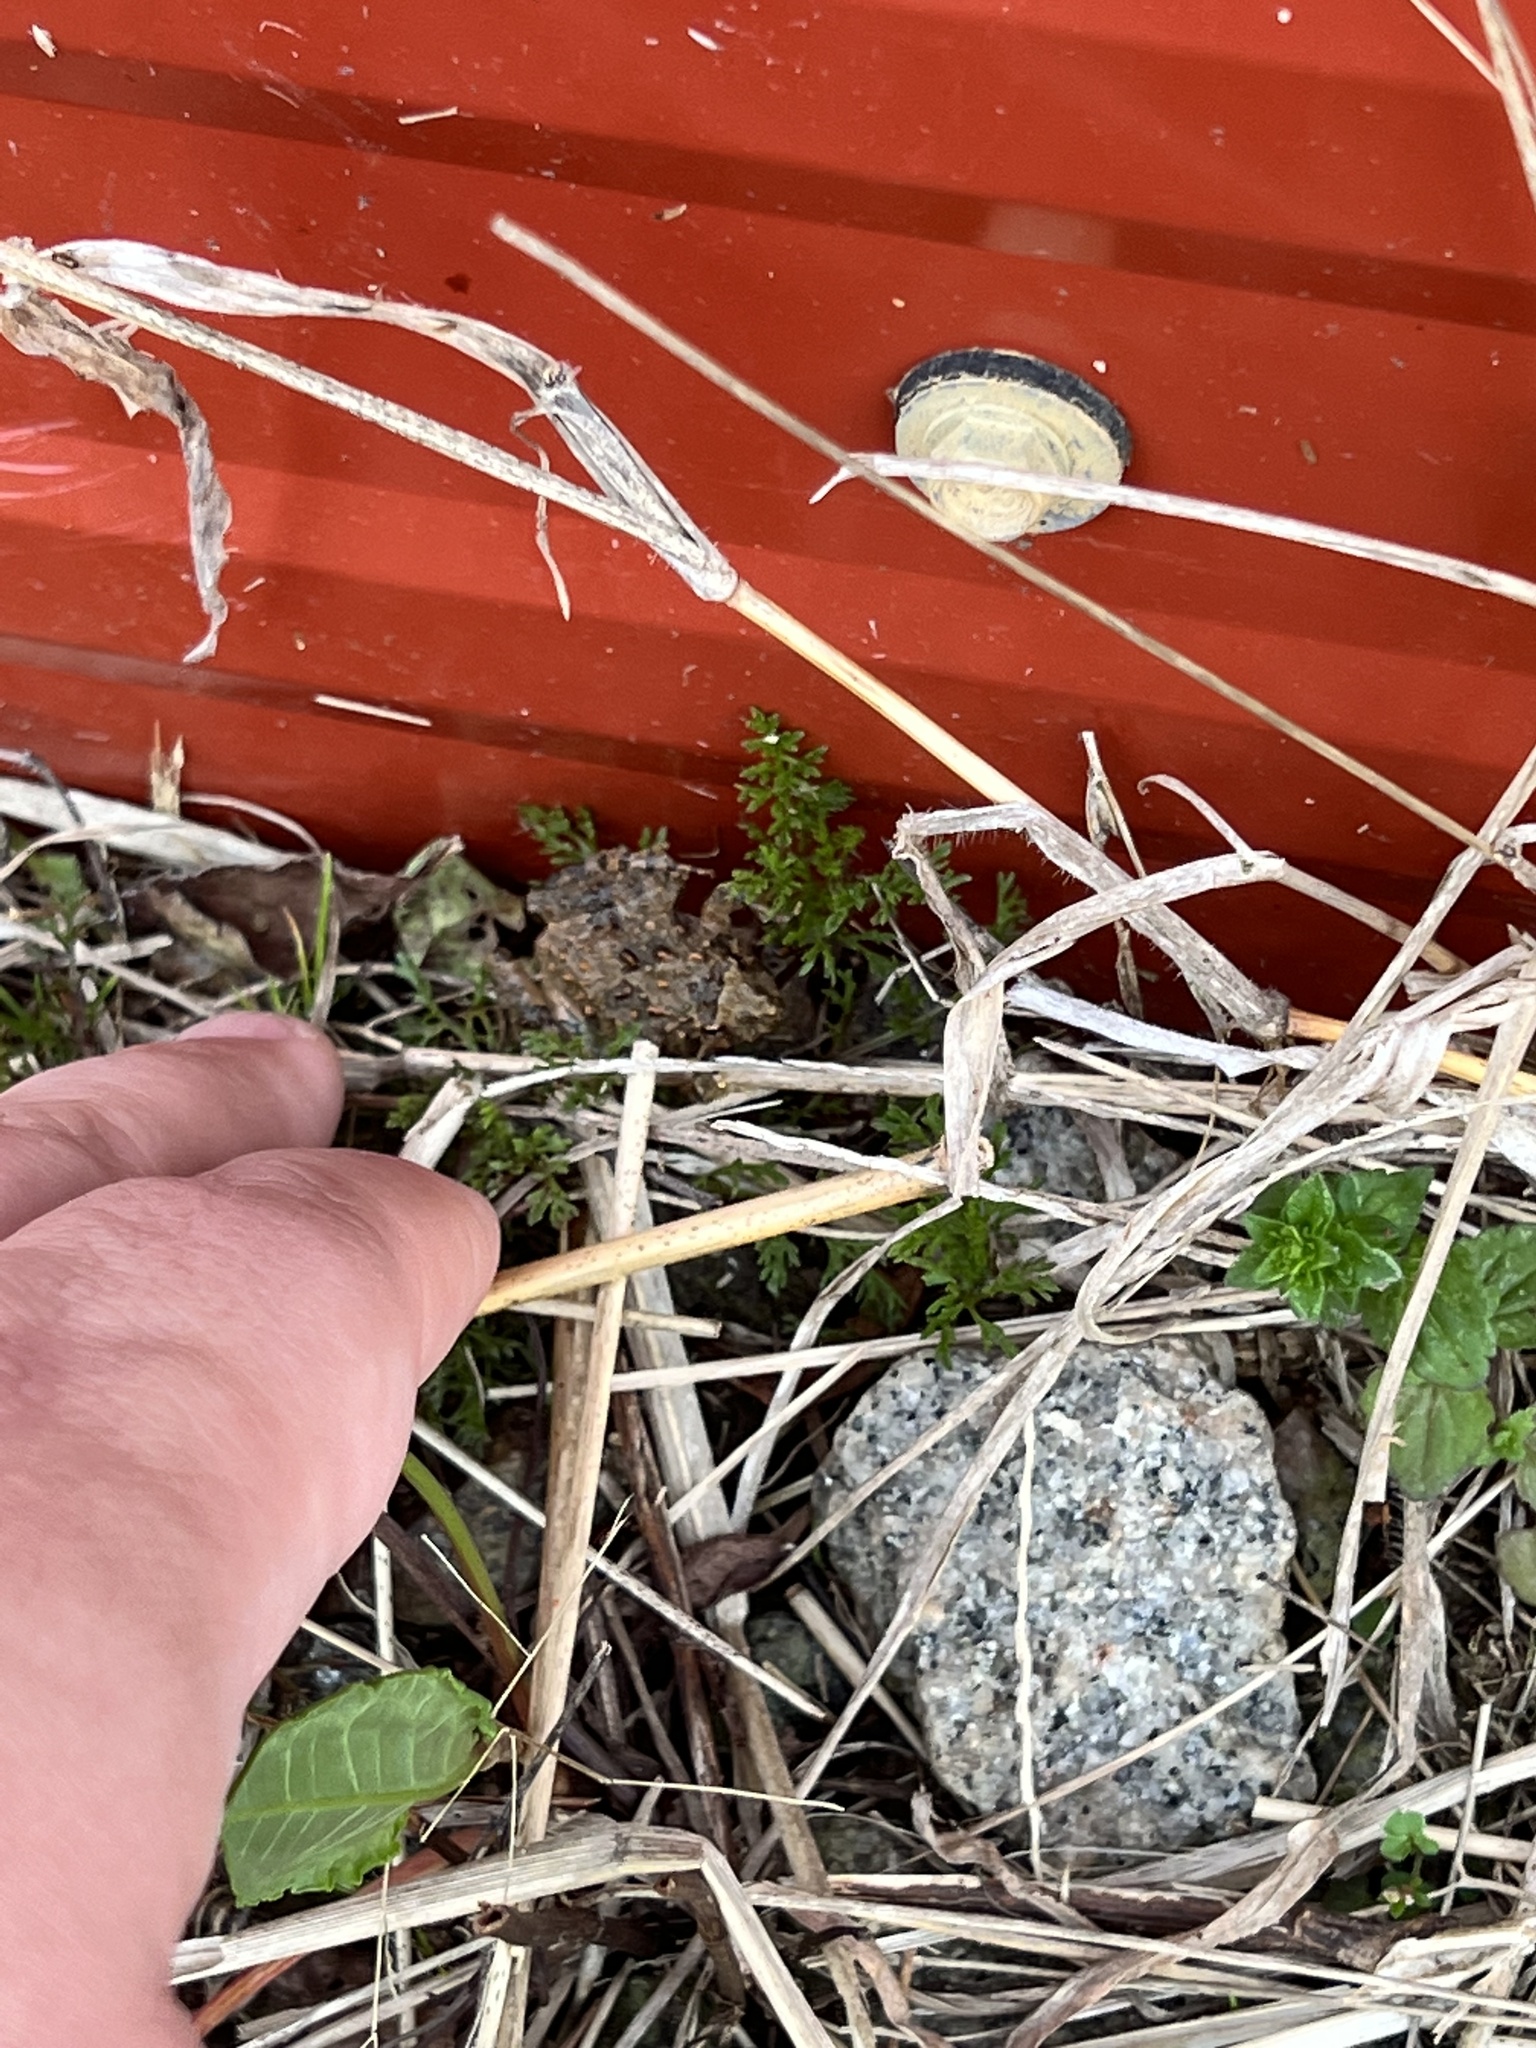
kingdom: Animalia
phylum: Chordata
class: Amphibia
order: Anura
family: Hylidae
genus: Acris
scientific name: Acris crepitans
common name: Northern cricket frog
